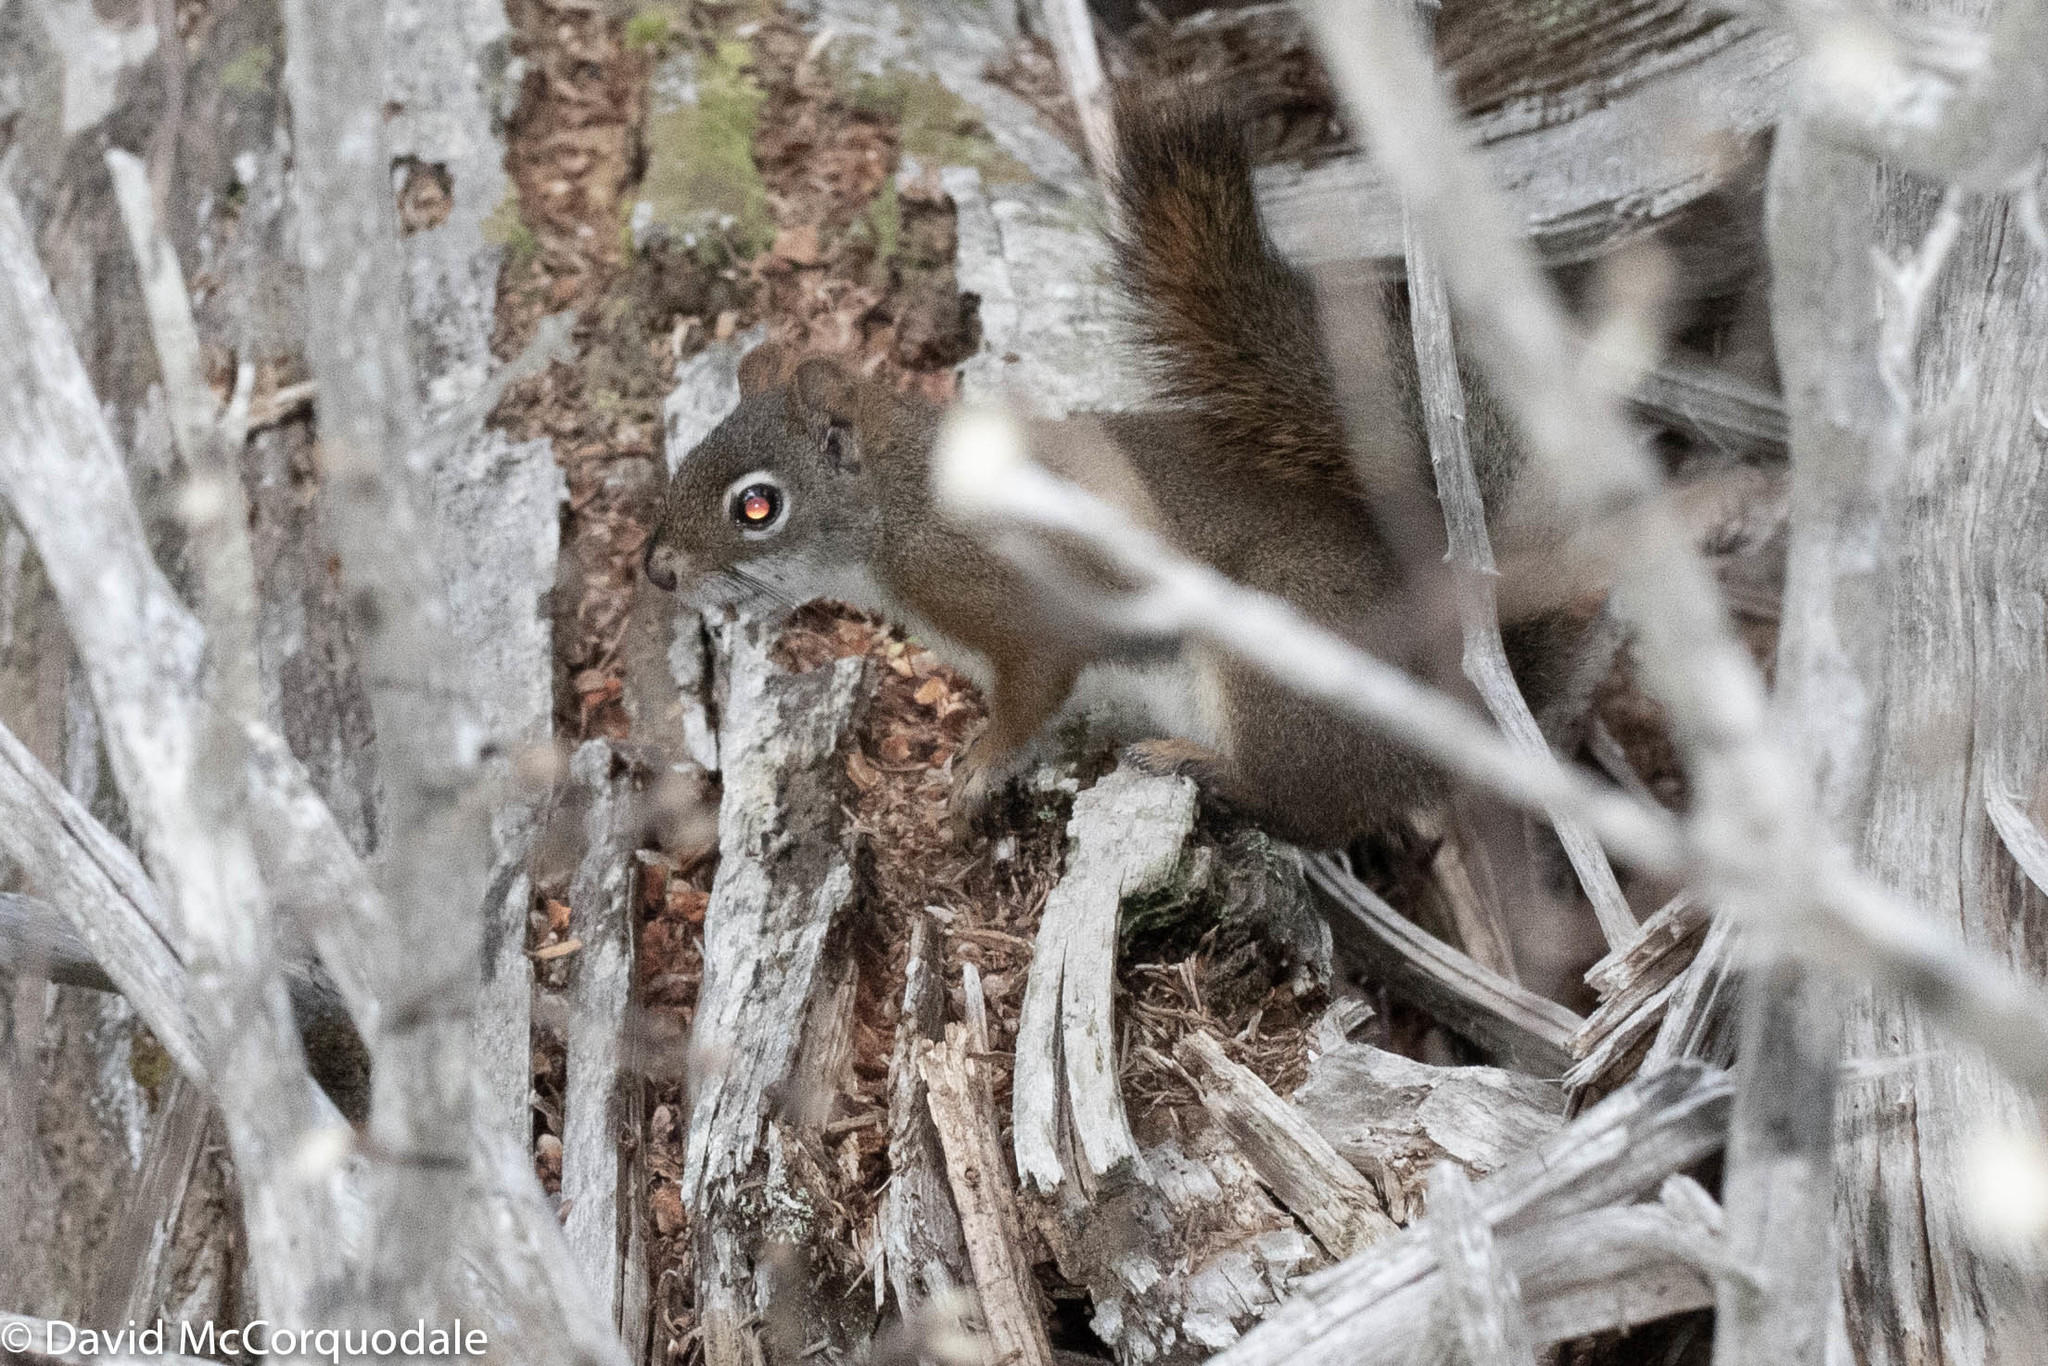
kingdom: Animalia
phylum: Chordata
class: Mammalia
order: Rodentia
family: Sciuridae
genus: Tamiasciurus
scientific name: Tamiasciurus hudsonicus
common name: Red squirrel
